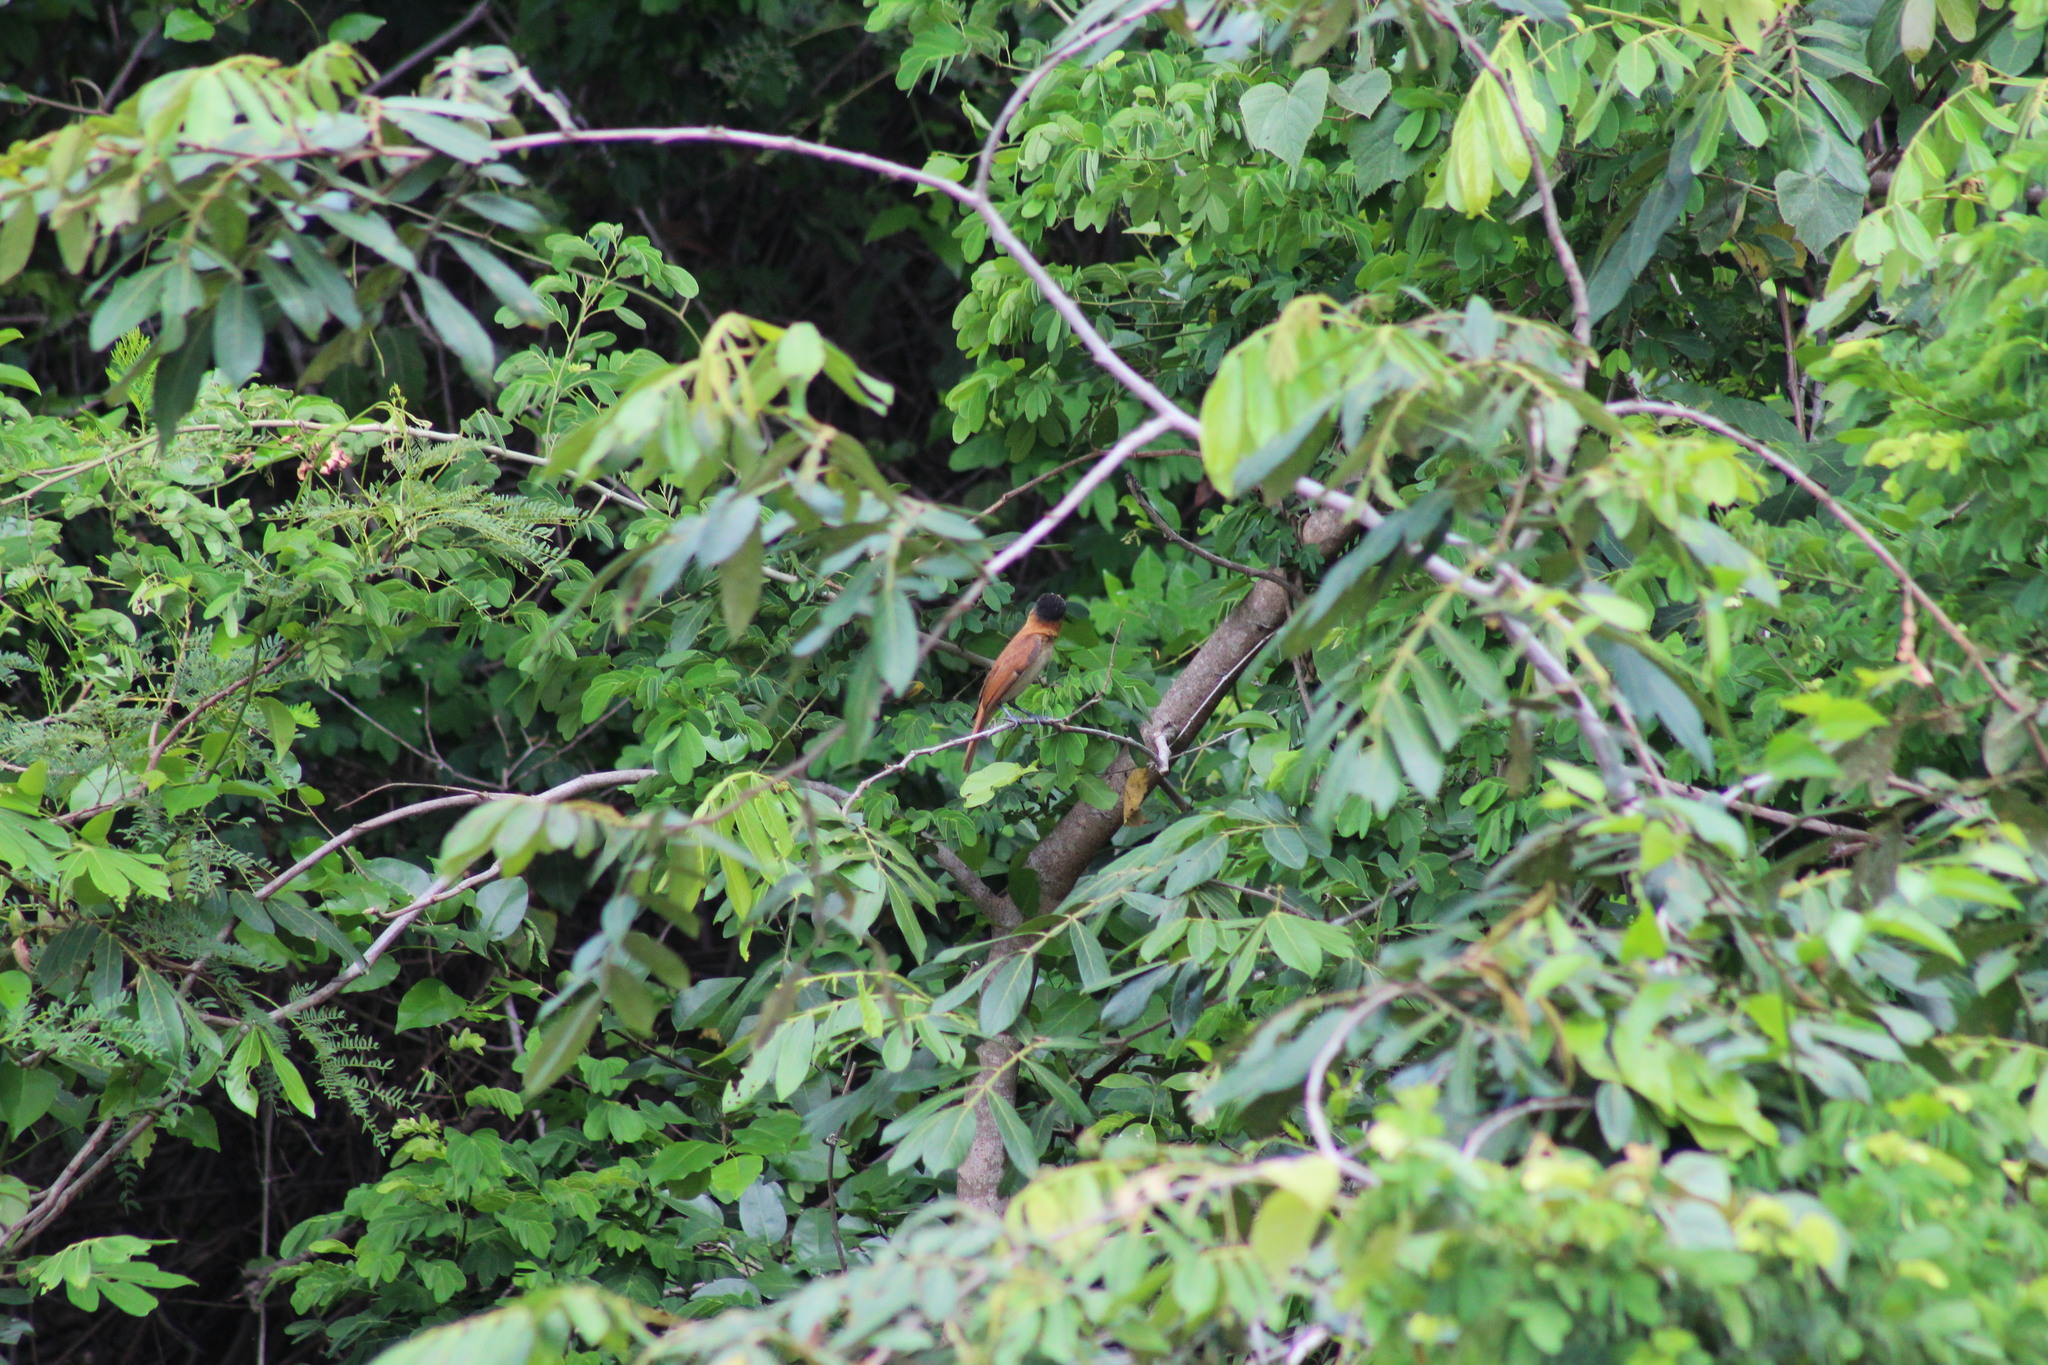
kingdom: Animalia
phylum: Chordata
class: Aves
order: Passeriformes
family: Cotingidae
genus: Pachyramphus
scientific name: Pachyramphus aglaiae
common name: Rose-throated becard
